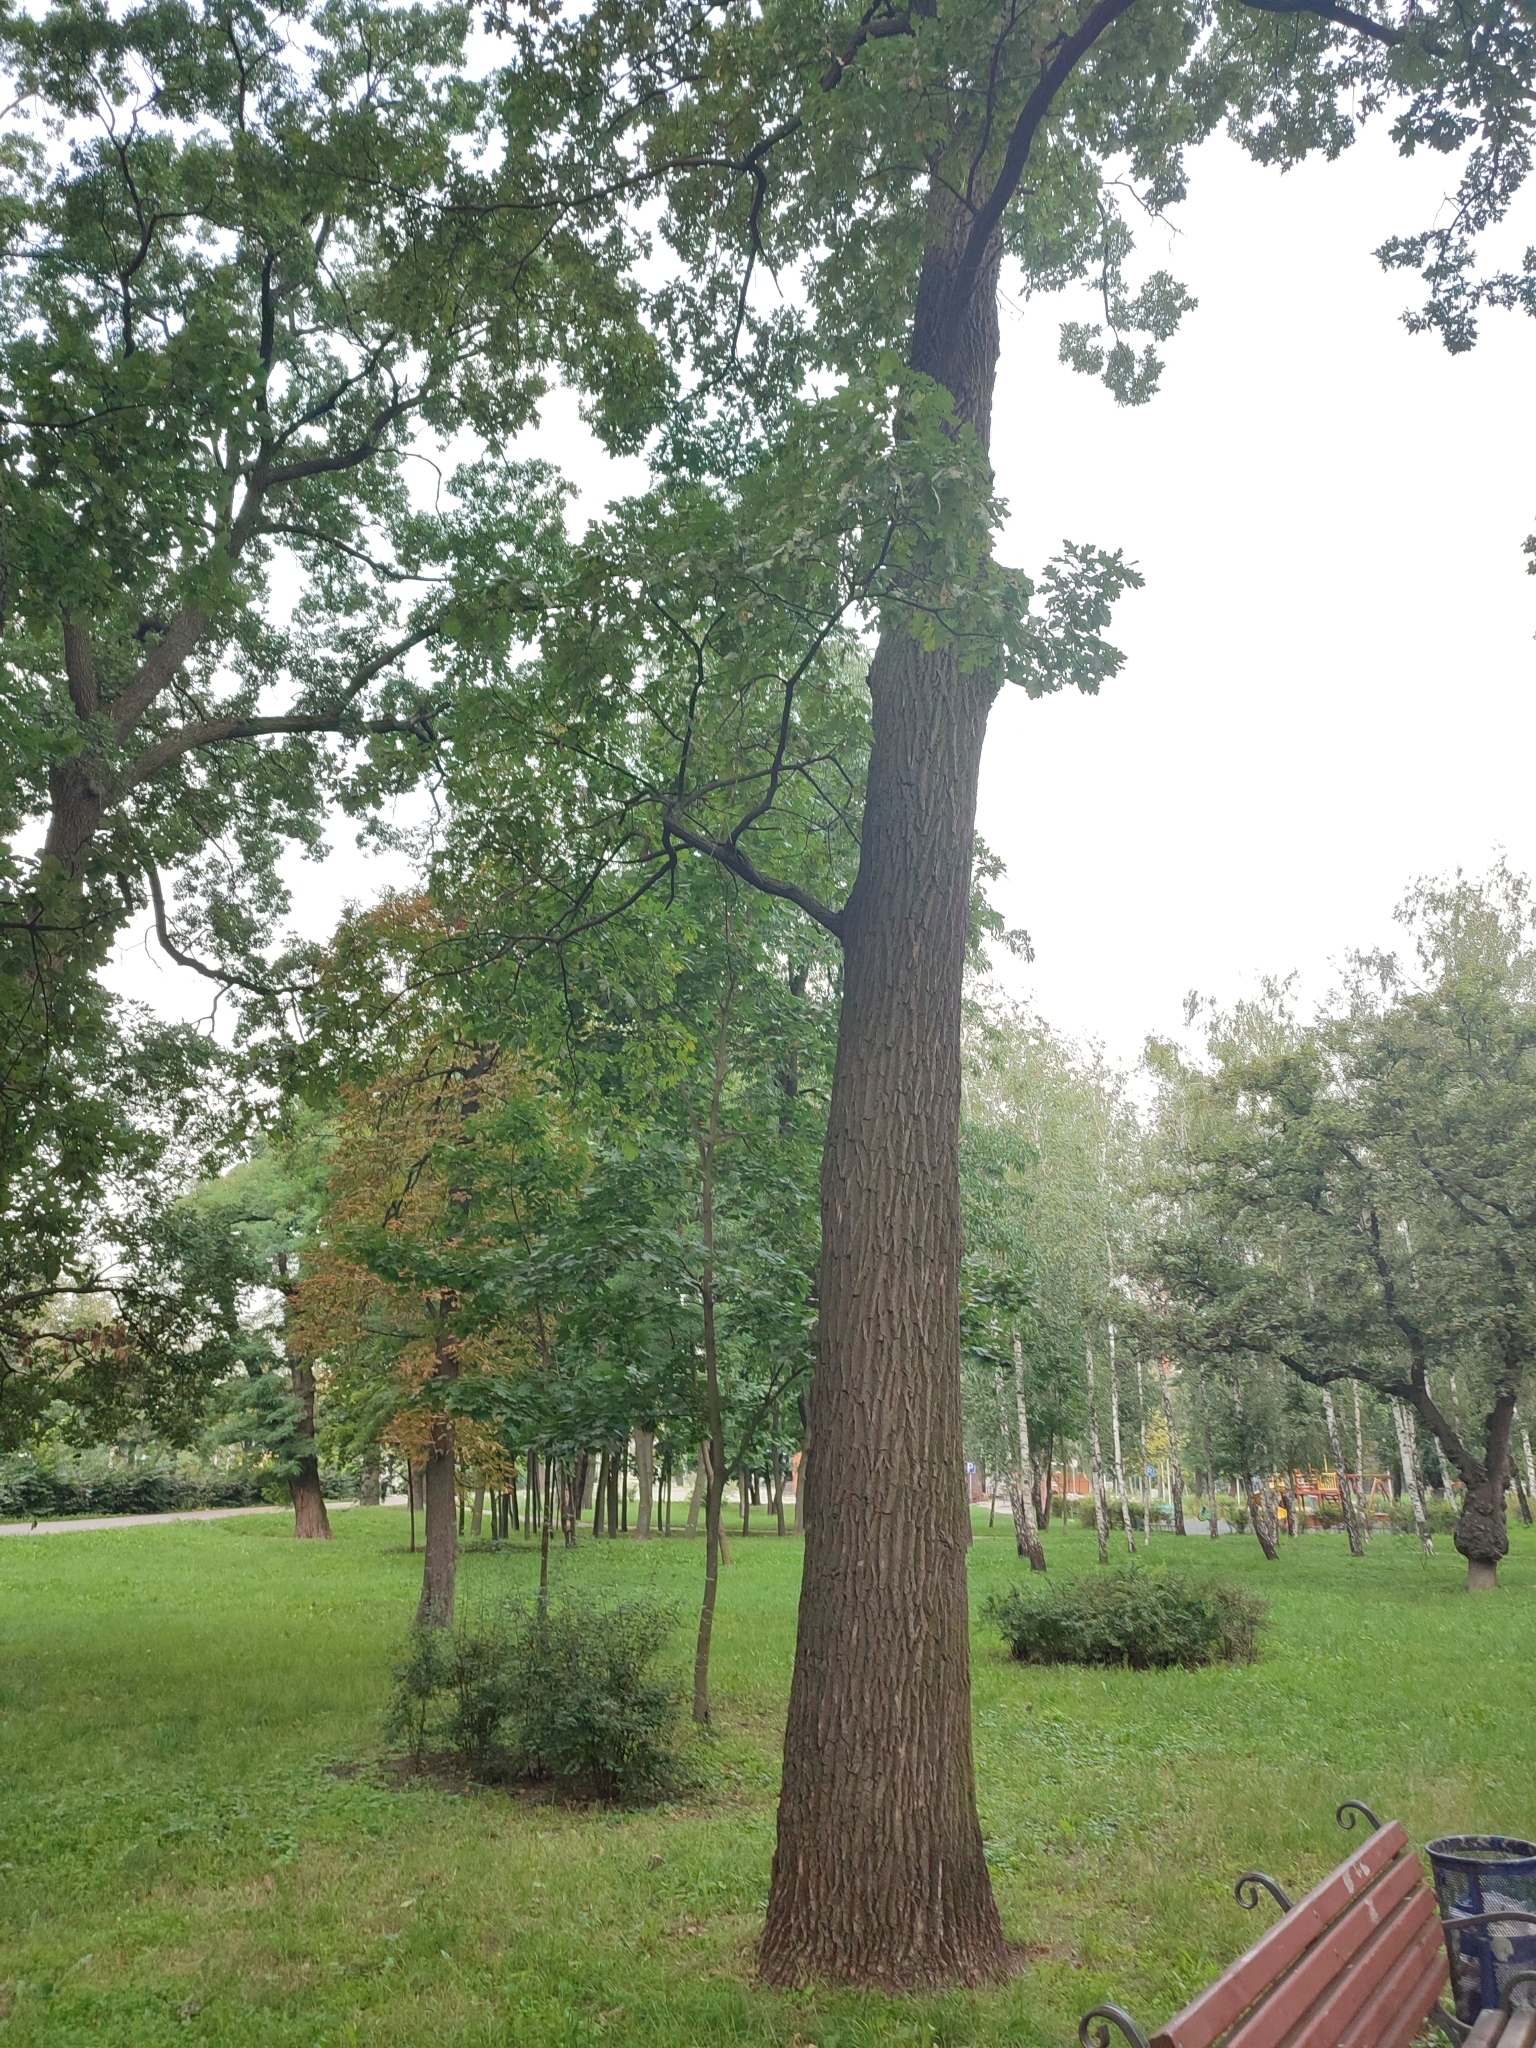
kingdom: Plantae
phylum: Tracheophyta
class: Magnoliopsida
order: Fagales
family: Fagaceae
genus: Quercus
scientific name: Quercus robur
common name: Pedunculate oak
